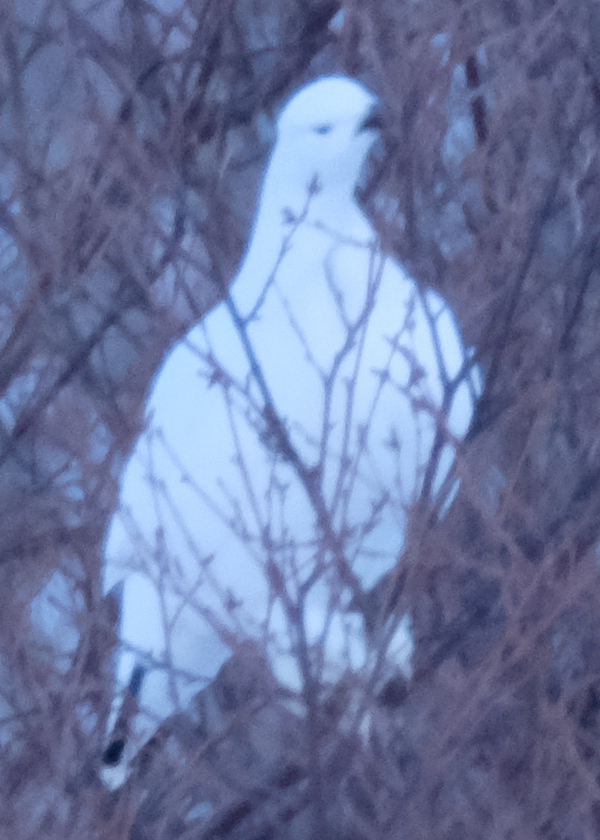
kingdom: Animalia
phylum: Chordata
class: Aves
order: Galliformes
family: Phasianidae
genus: Lagopus
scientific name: Lagopus lagopus
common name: Willow ptarmigan
